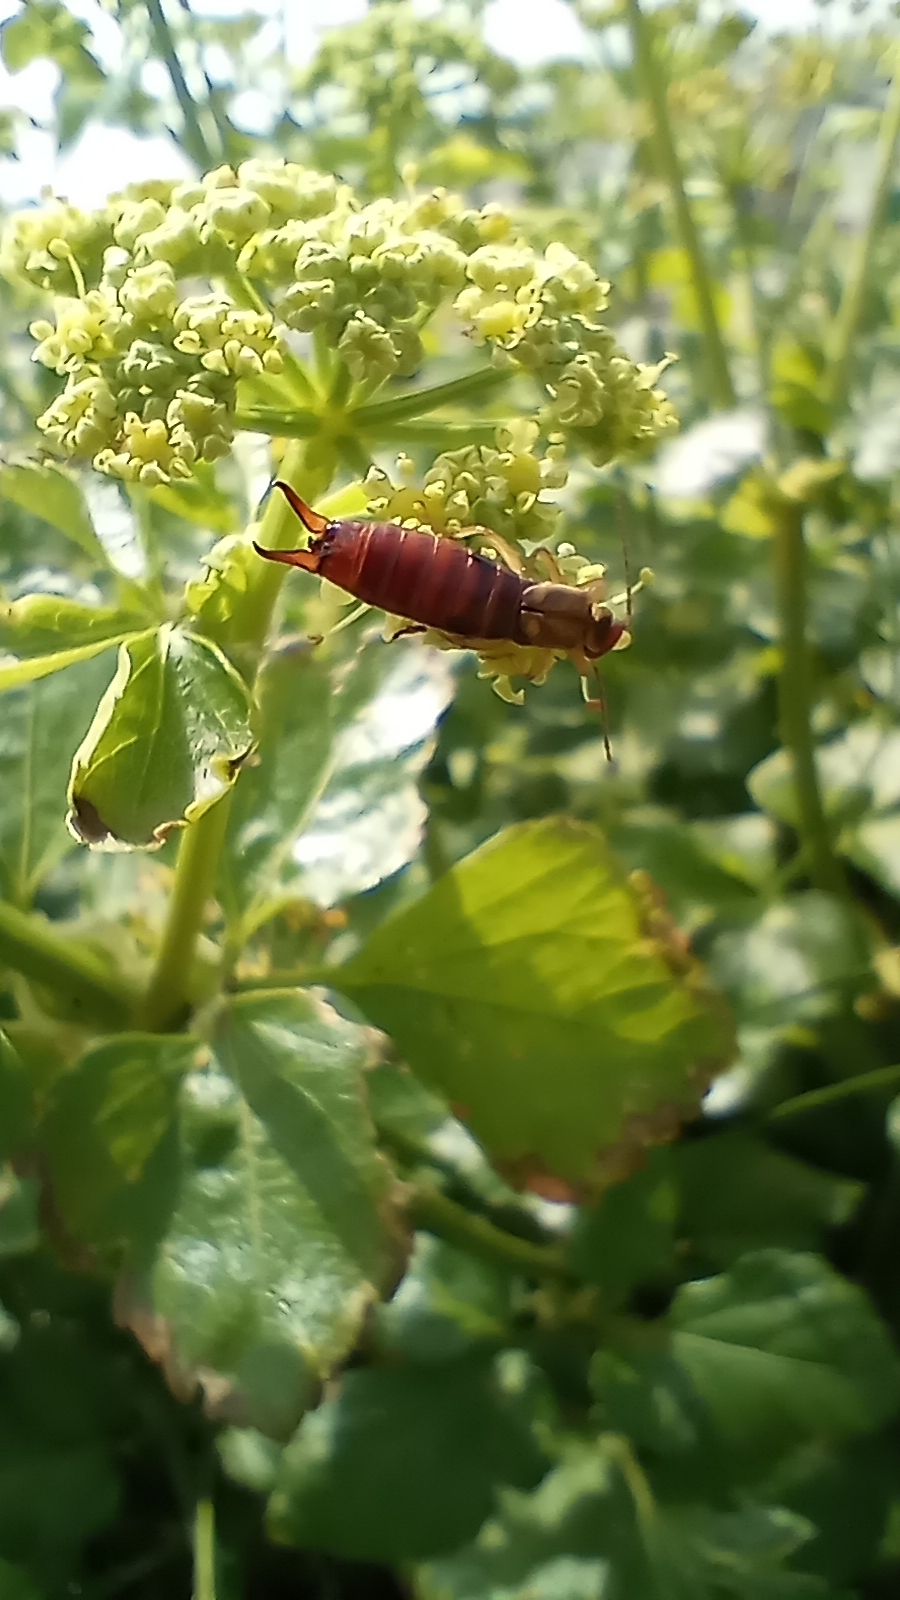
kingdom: Animalia
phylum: Arthropoda
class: Insecta
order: Dermaptera
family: Forficulidae
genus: Forficula
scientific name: Forficula
